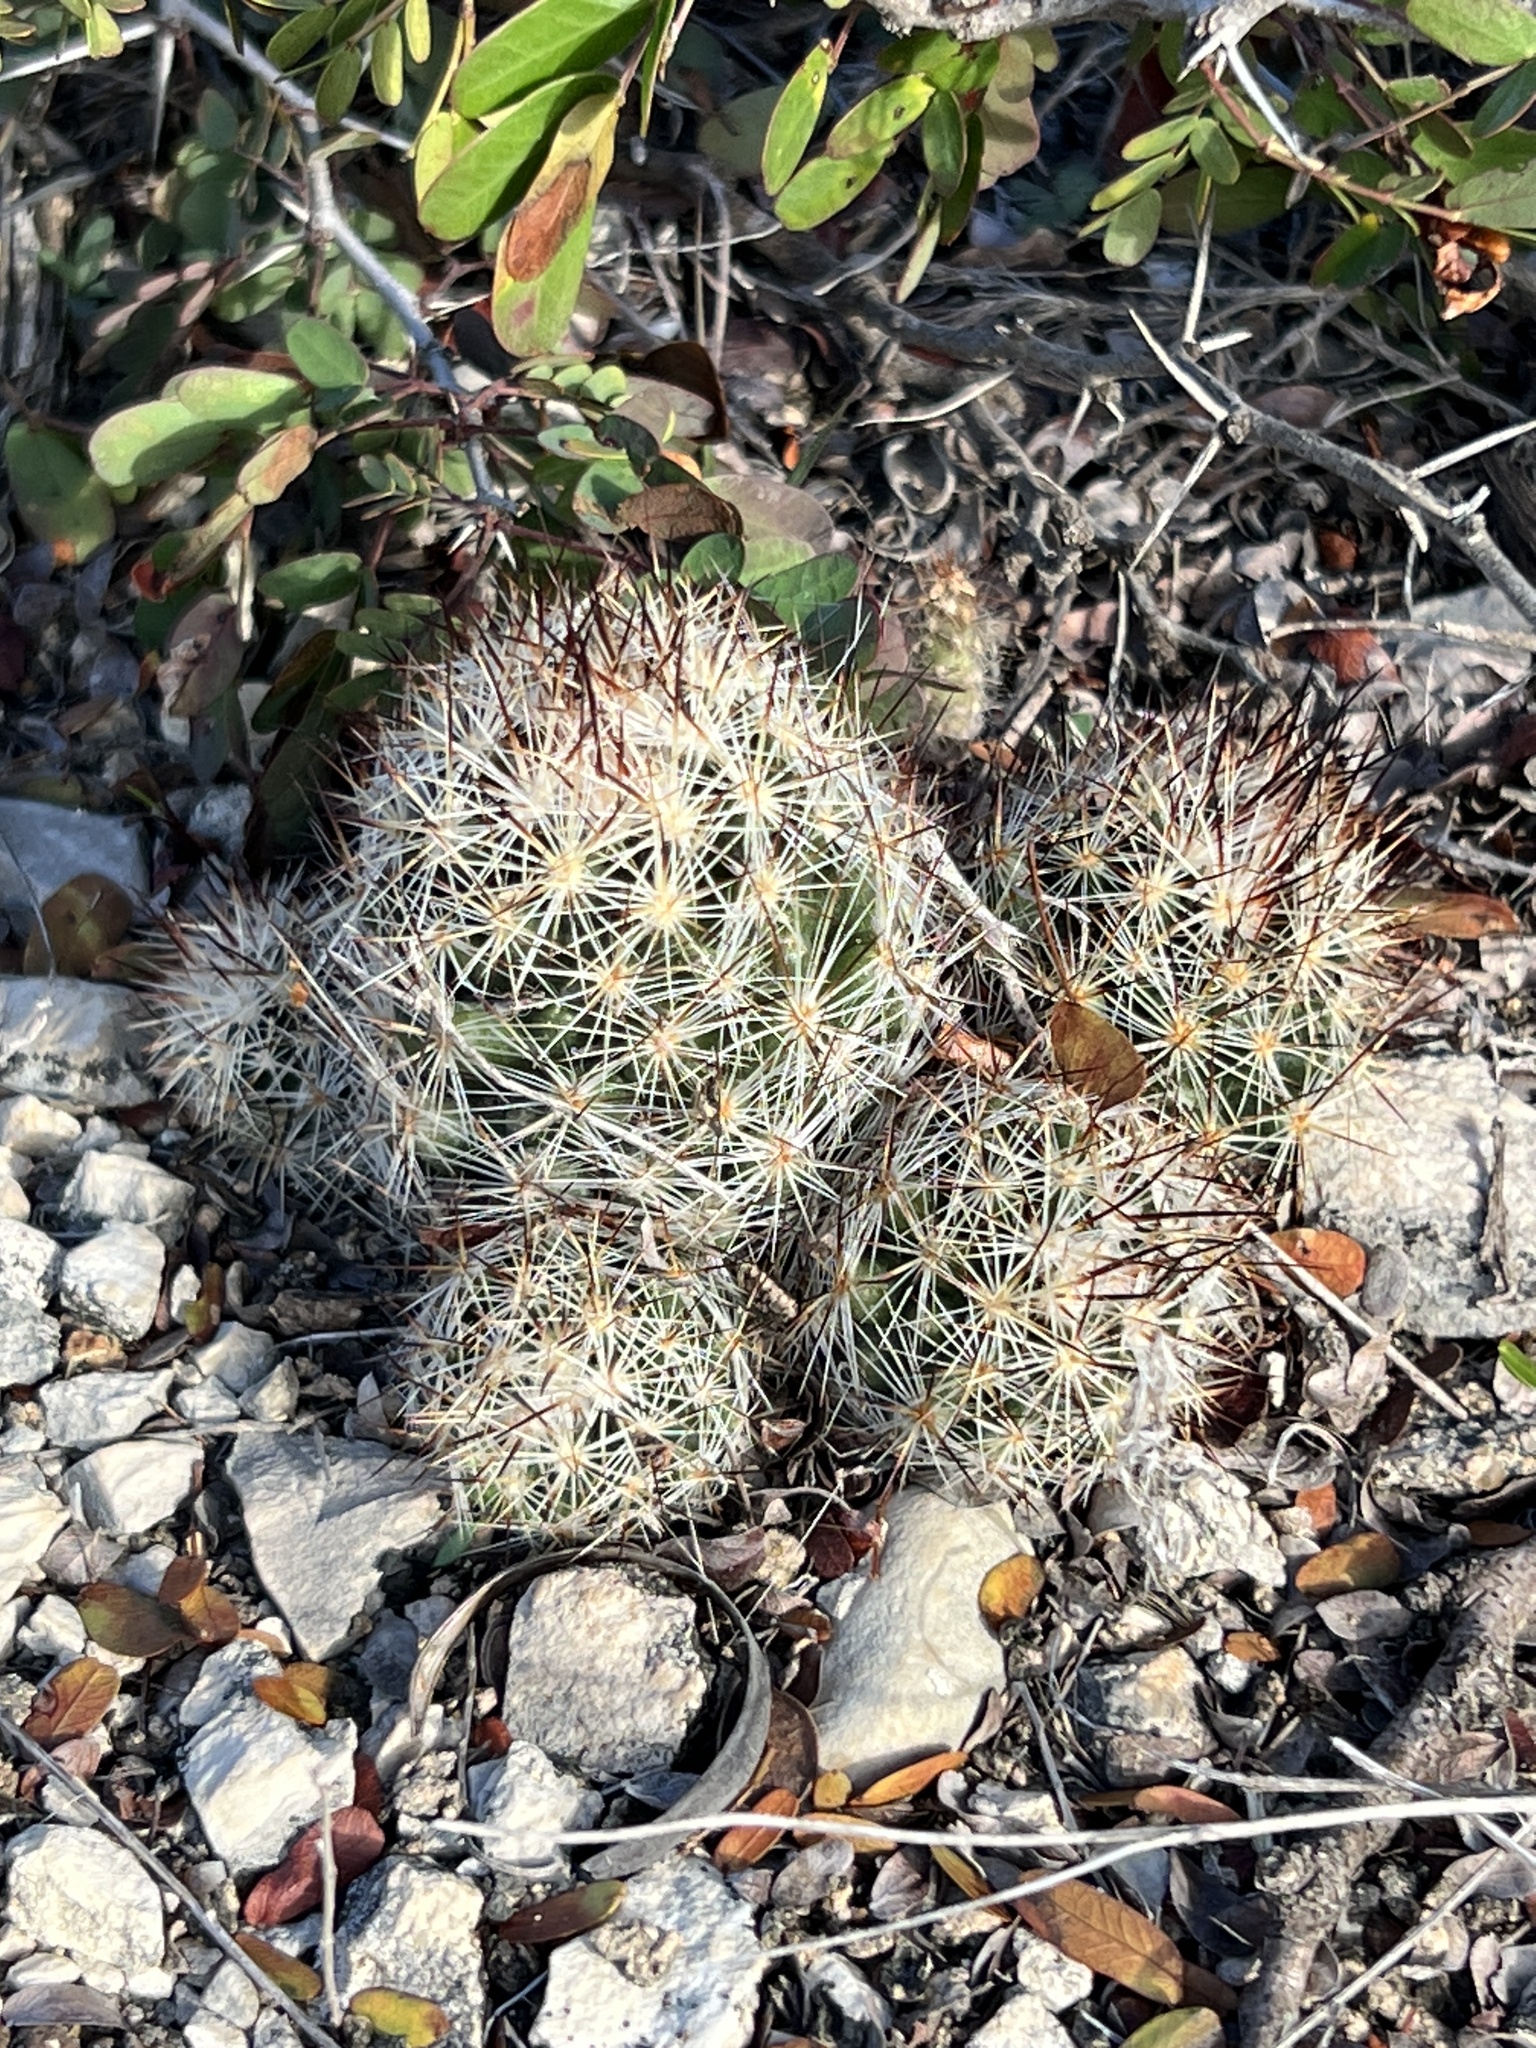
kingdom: Plantae
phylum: Tracheophyta
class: Magnoliopsida
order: Caryophyllales
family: Cactaceae
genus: Pelecyphora
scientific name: Pelecyphora emskoetteriana
